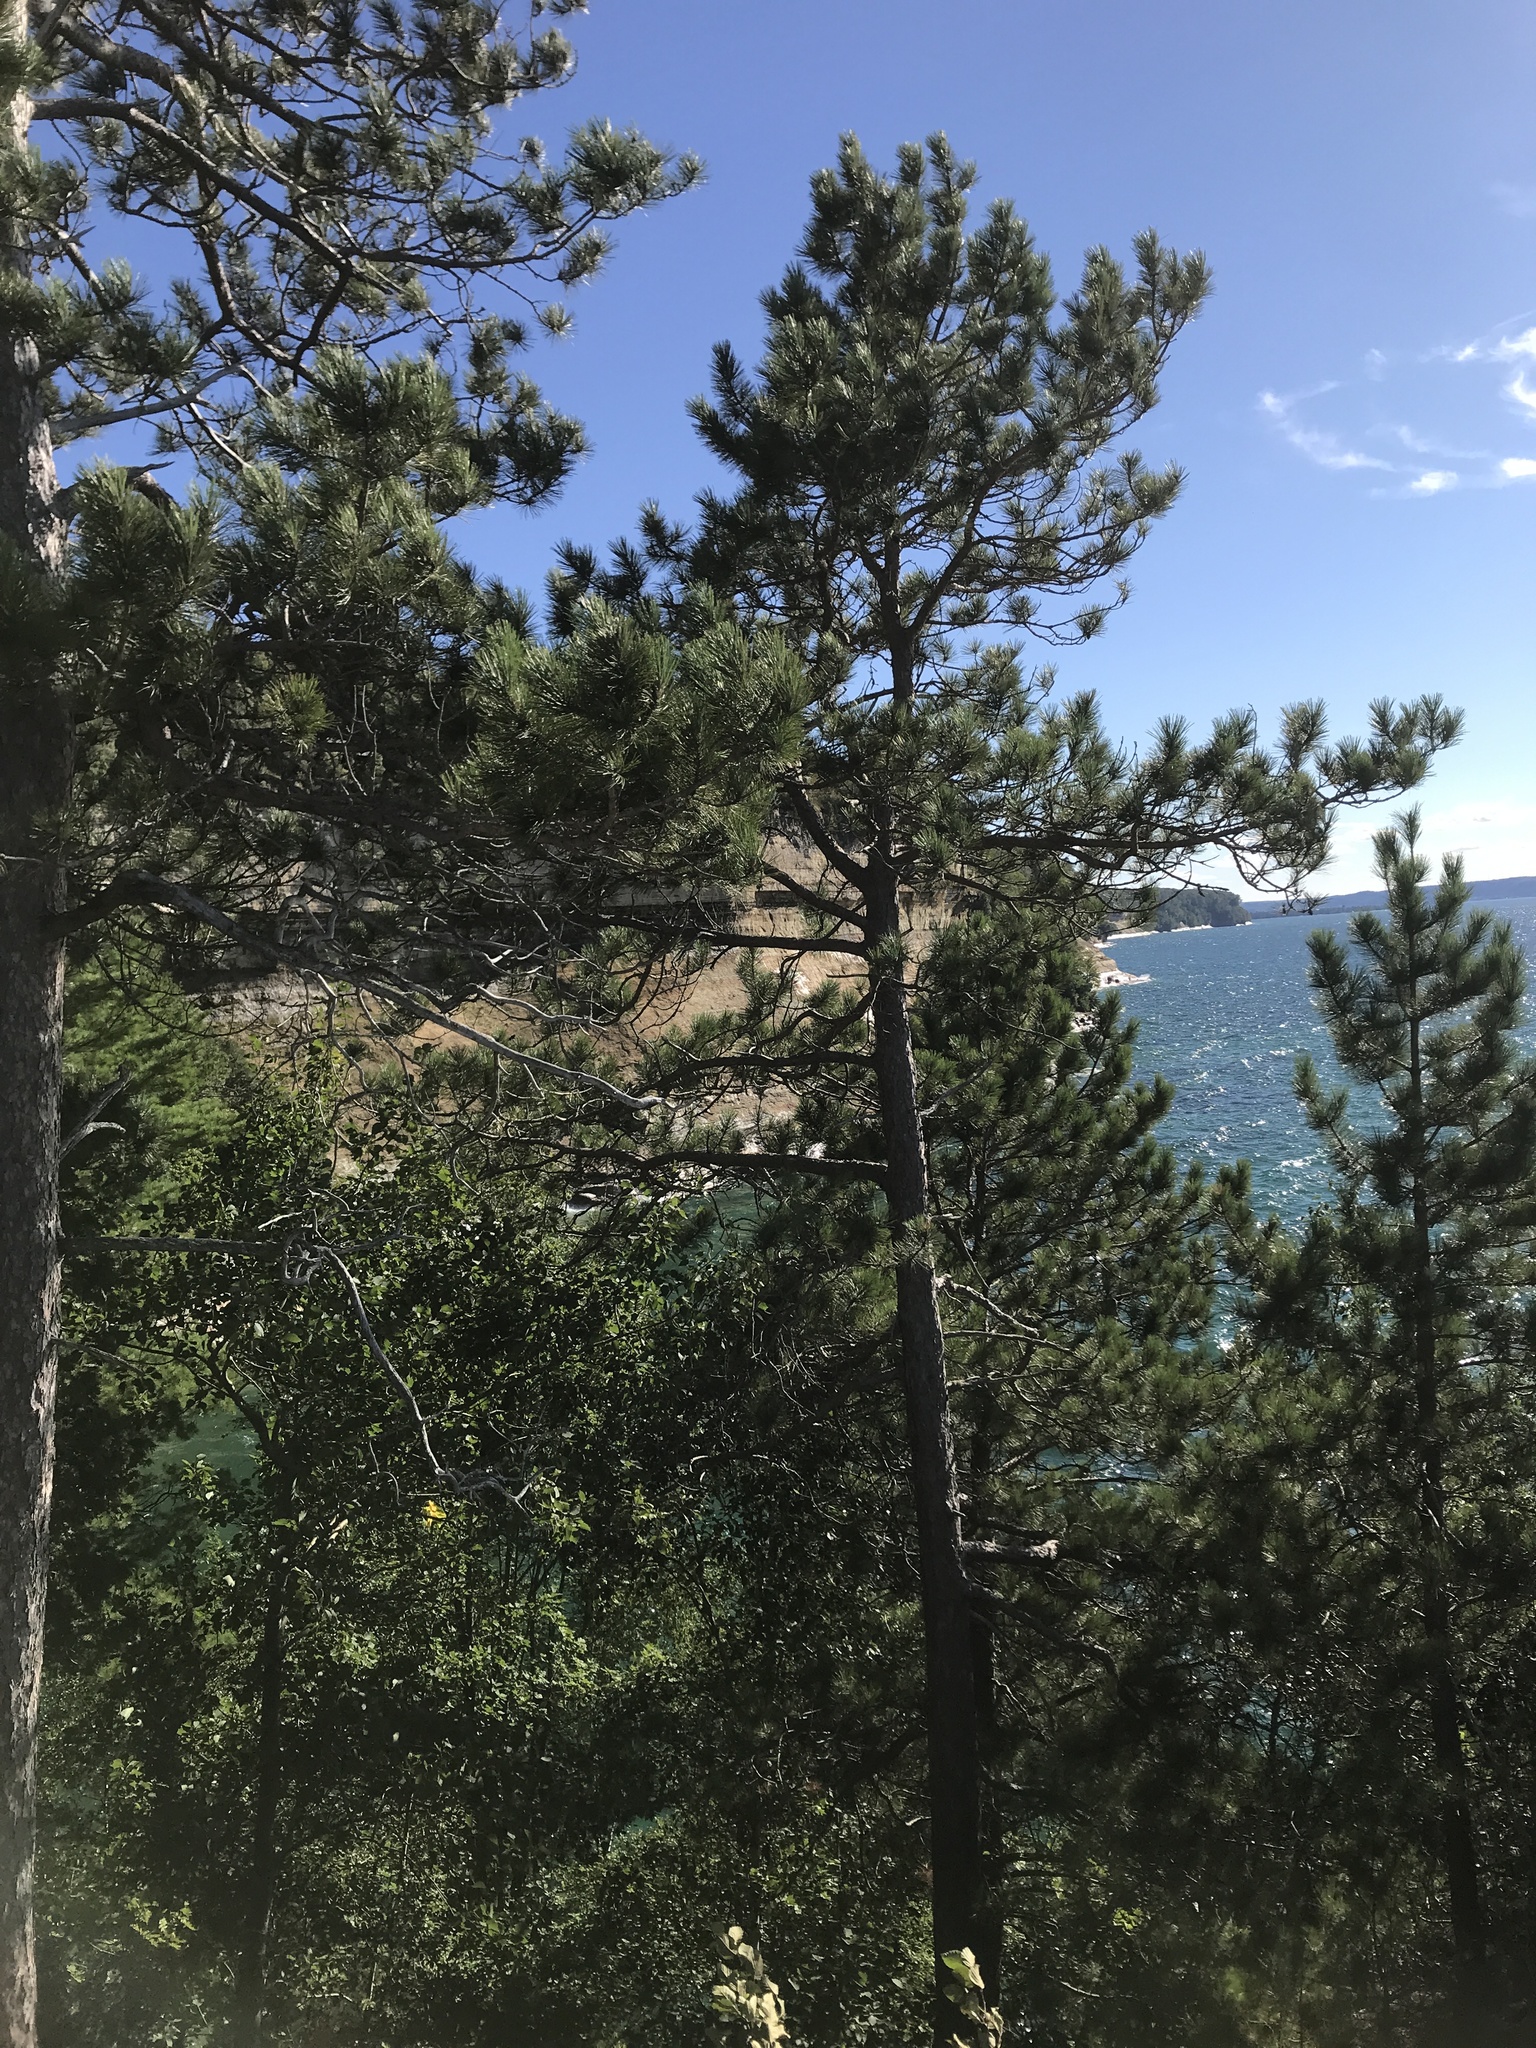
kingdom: Plantae
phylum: Tracheophyta
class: Pinopsida
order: Pinales
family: Pinaceae
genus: Pinus
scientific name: Pinus strobus
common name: Weymouth pine
